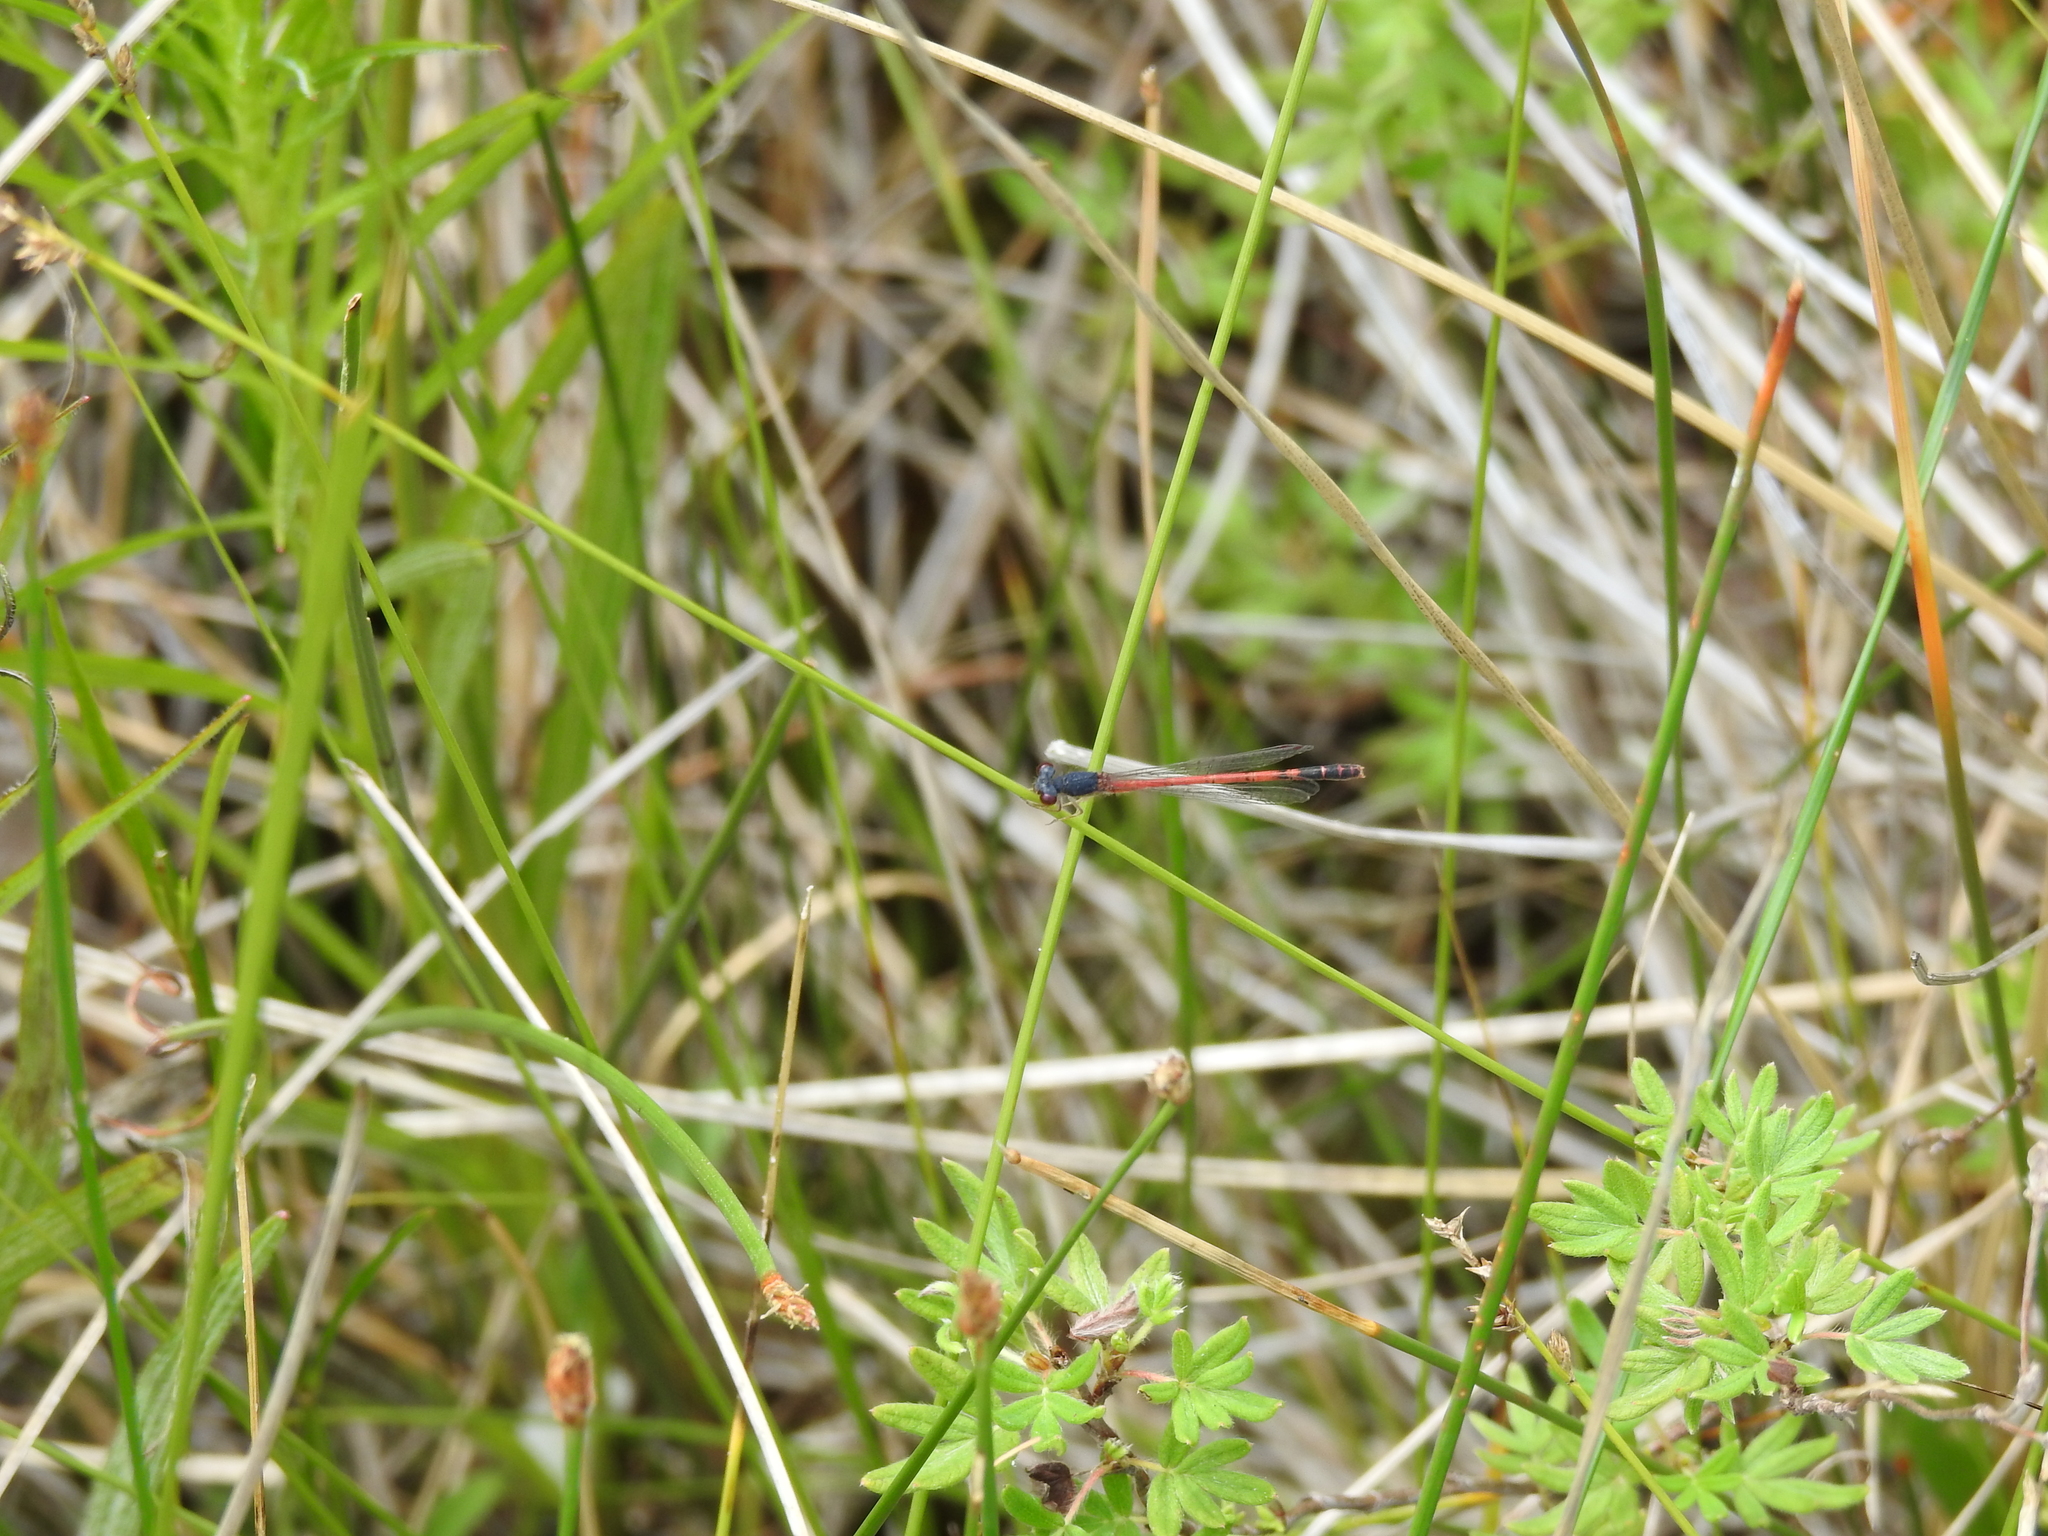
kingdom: Animalia
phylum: Arthropoda
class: Insecta
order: Odonata
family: Coenagrionidae
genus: Amphiagrion
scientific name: Amphiagrion saucium
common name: Eastern red damsel
